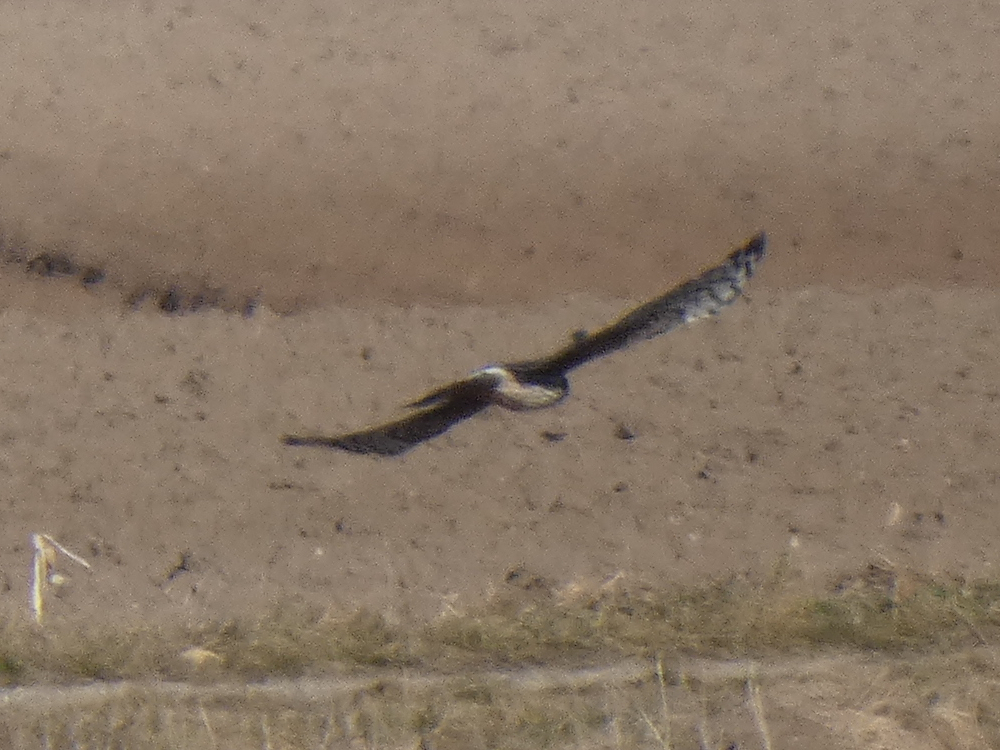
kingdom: Animalia
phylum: Chordata
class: Aves
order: Accipitriformes
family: Accipitridae
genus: Circus
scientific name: Circus cyaneus
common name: Hen harrier
